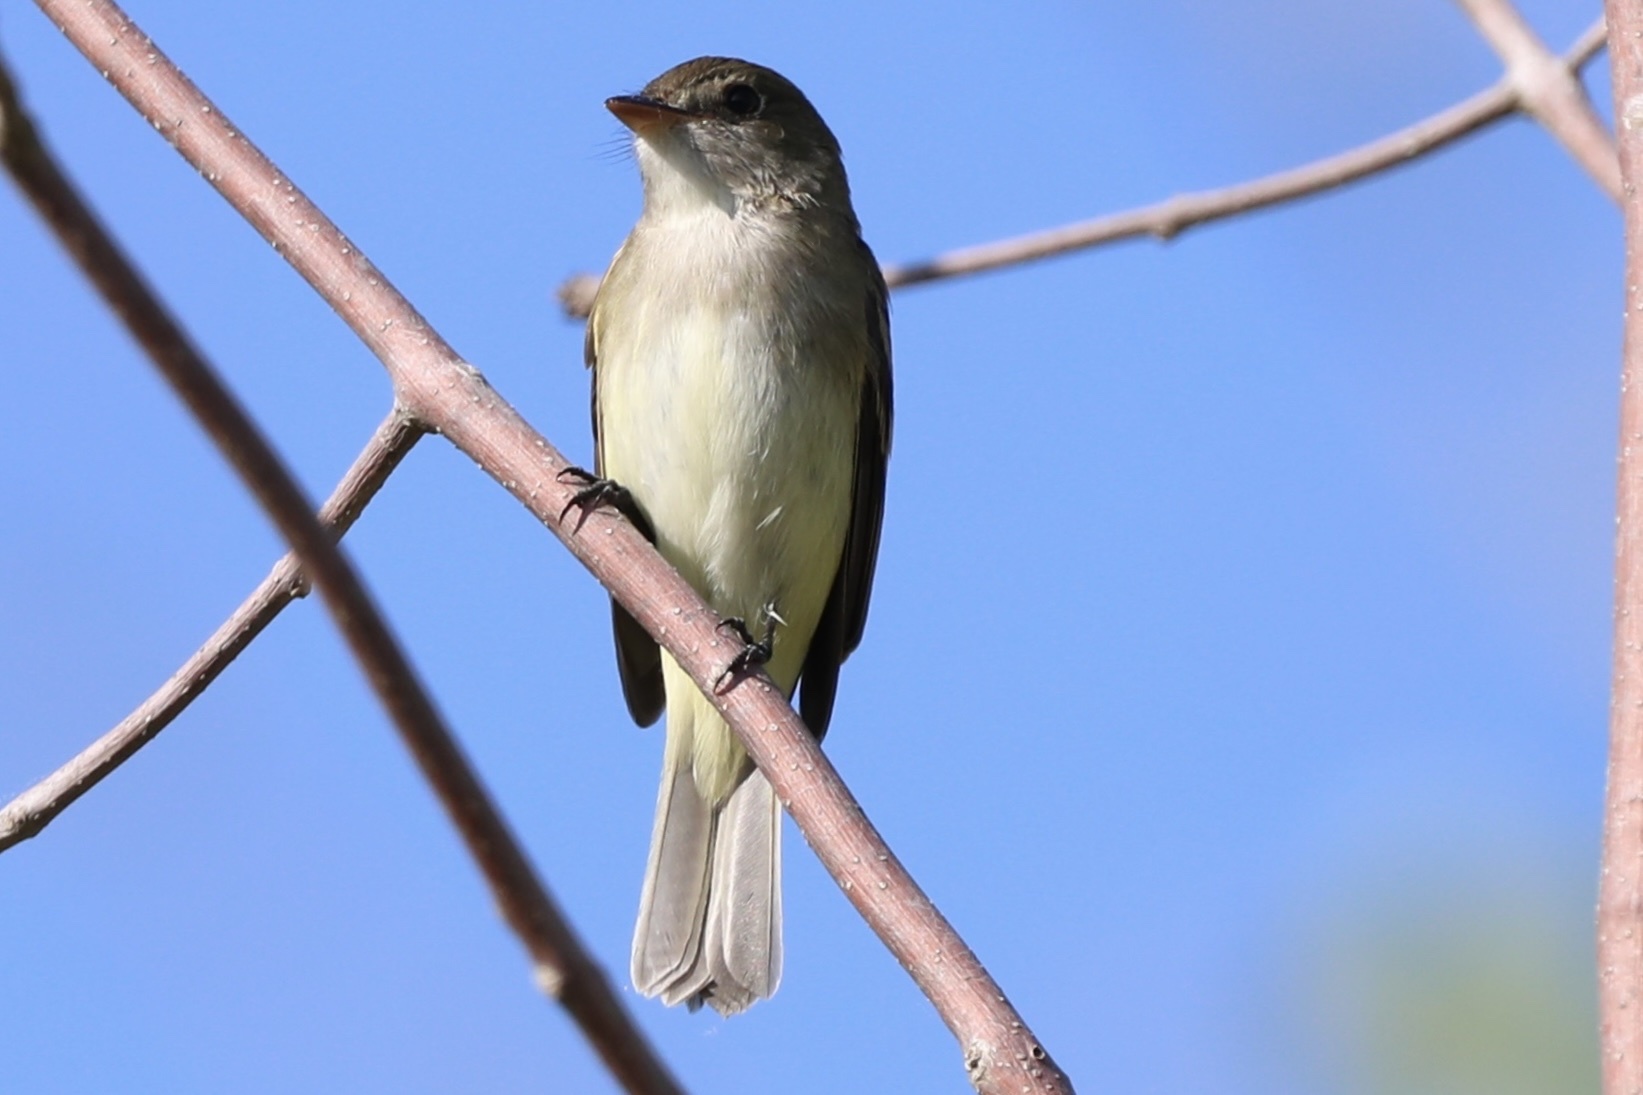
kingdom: Animalia
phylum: Chordata
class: Aves
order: Passeriformes
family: Tyrannidae
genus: Empidonax
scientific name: Empidonax alnorum
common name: Alder flycatcher
